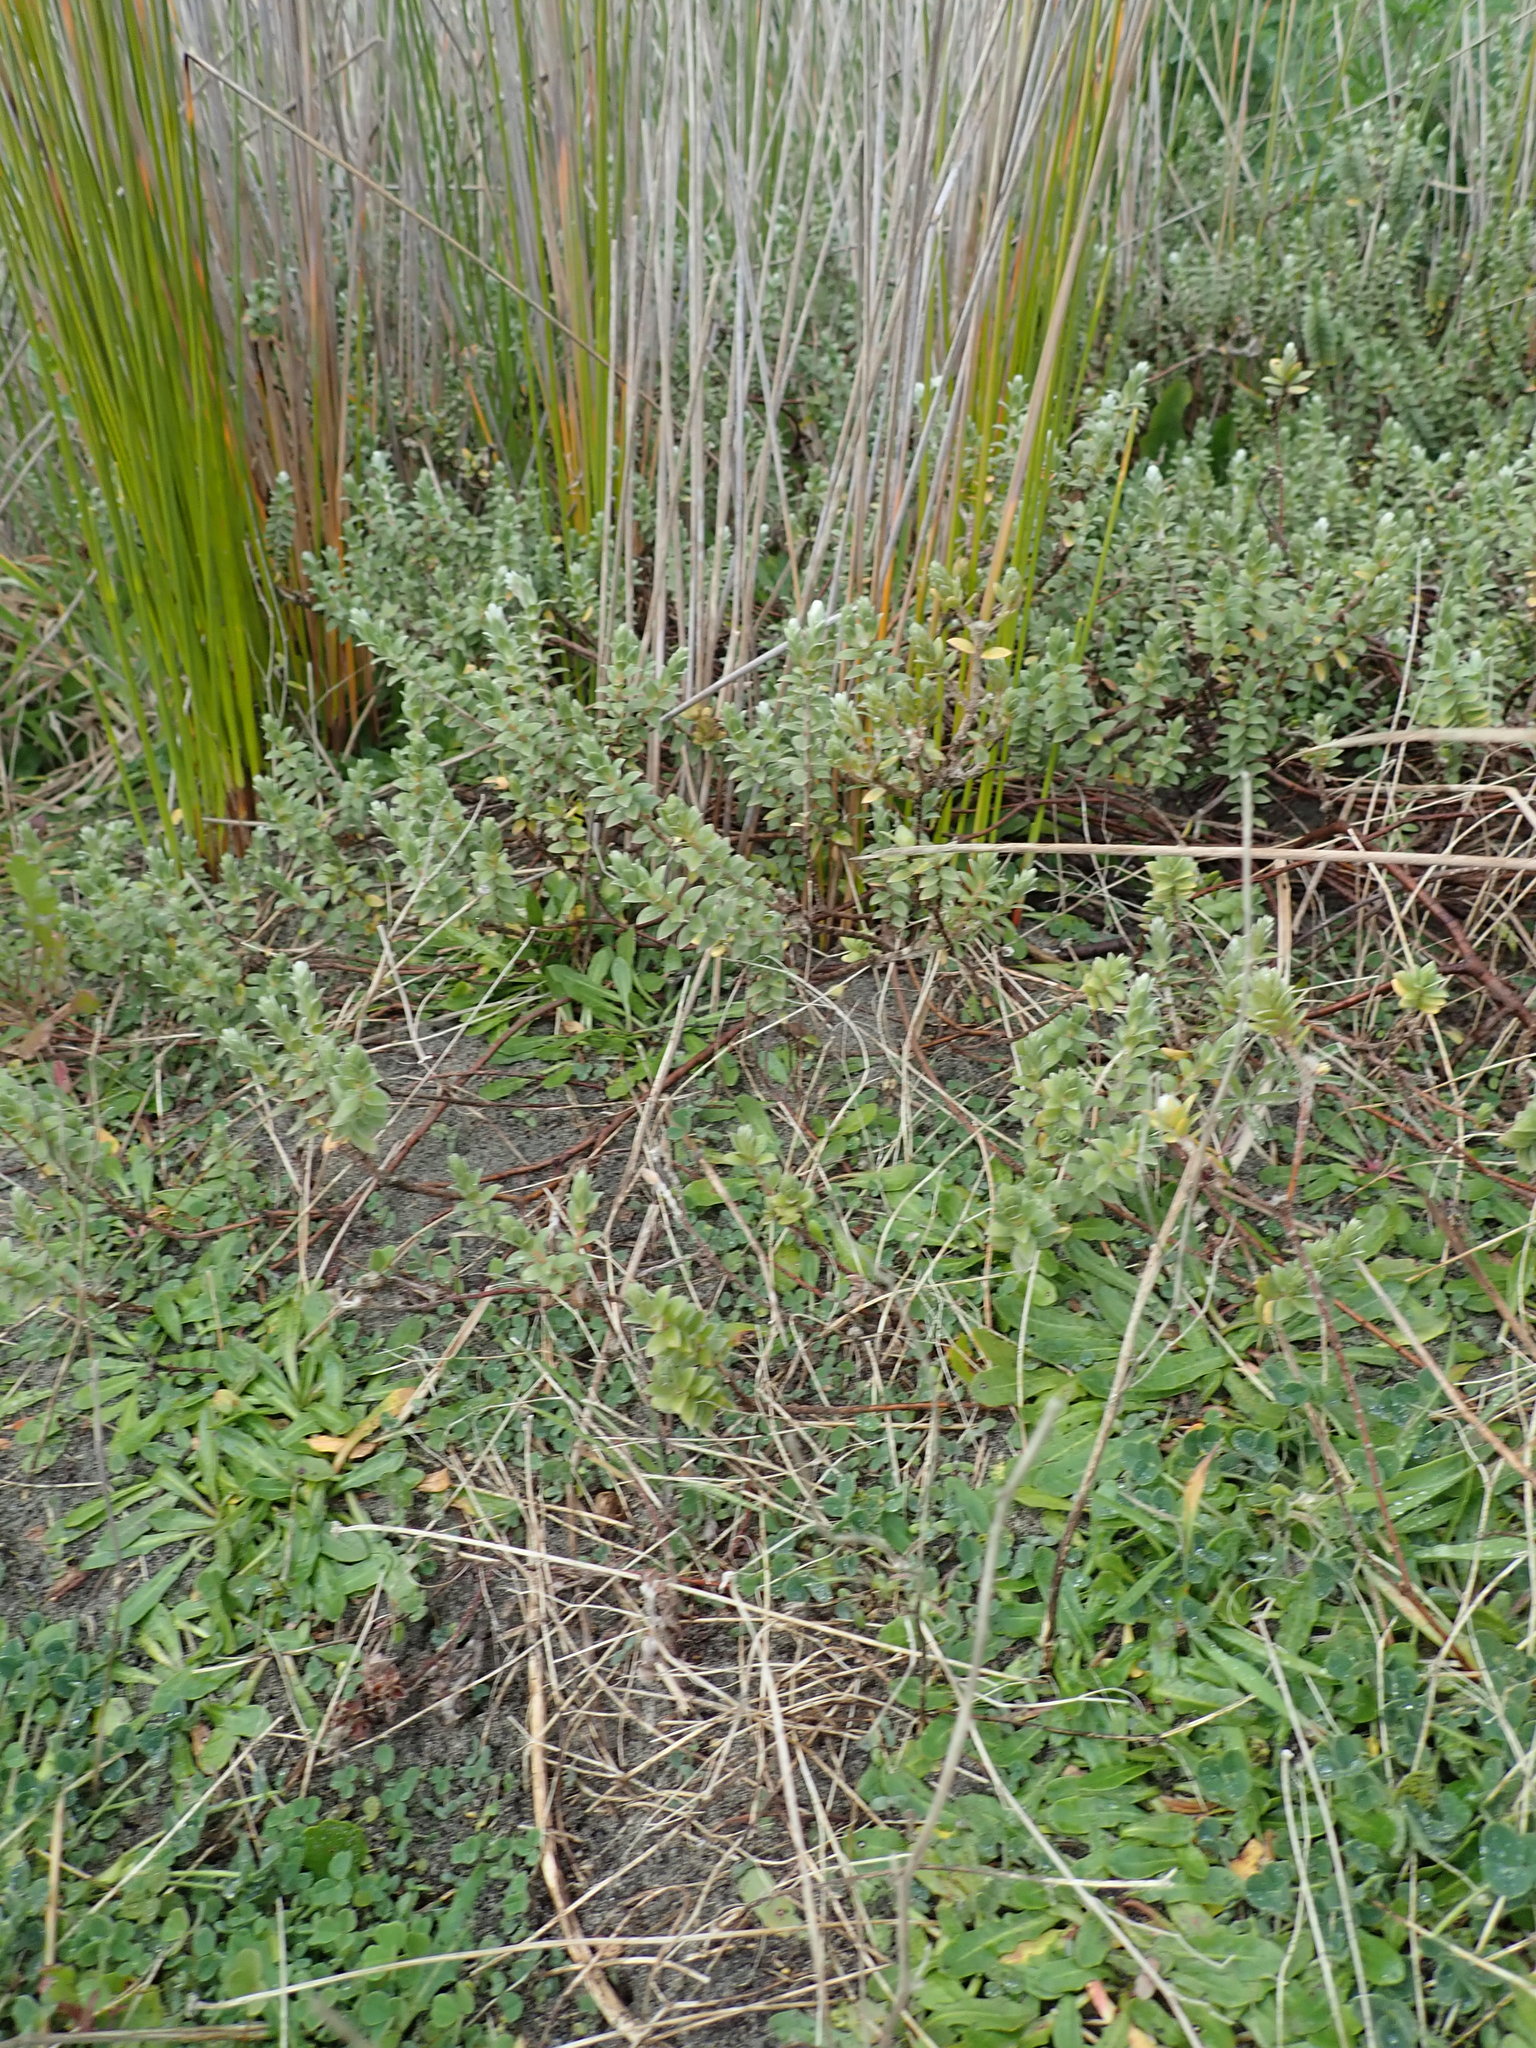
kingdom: Plantae
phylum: Tracheophyta
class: Magnoliopsida
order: Malvales
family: Thymelaeaceae
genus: Pimelea
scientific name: Pimelea villosa
